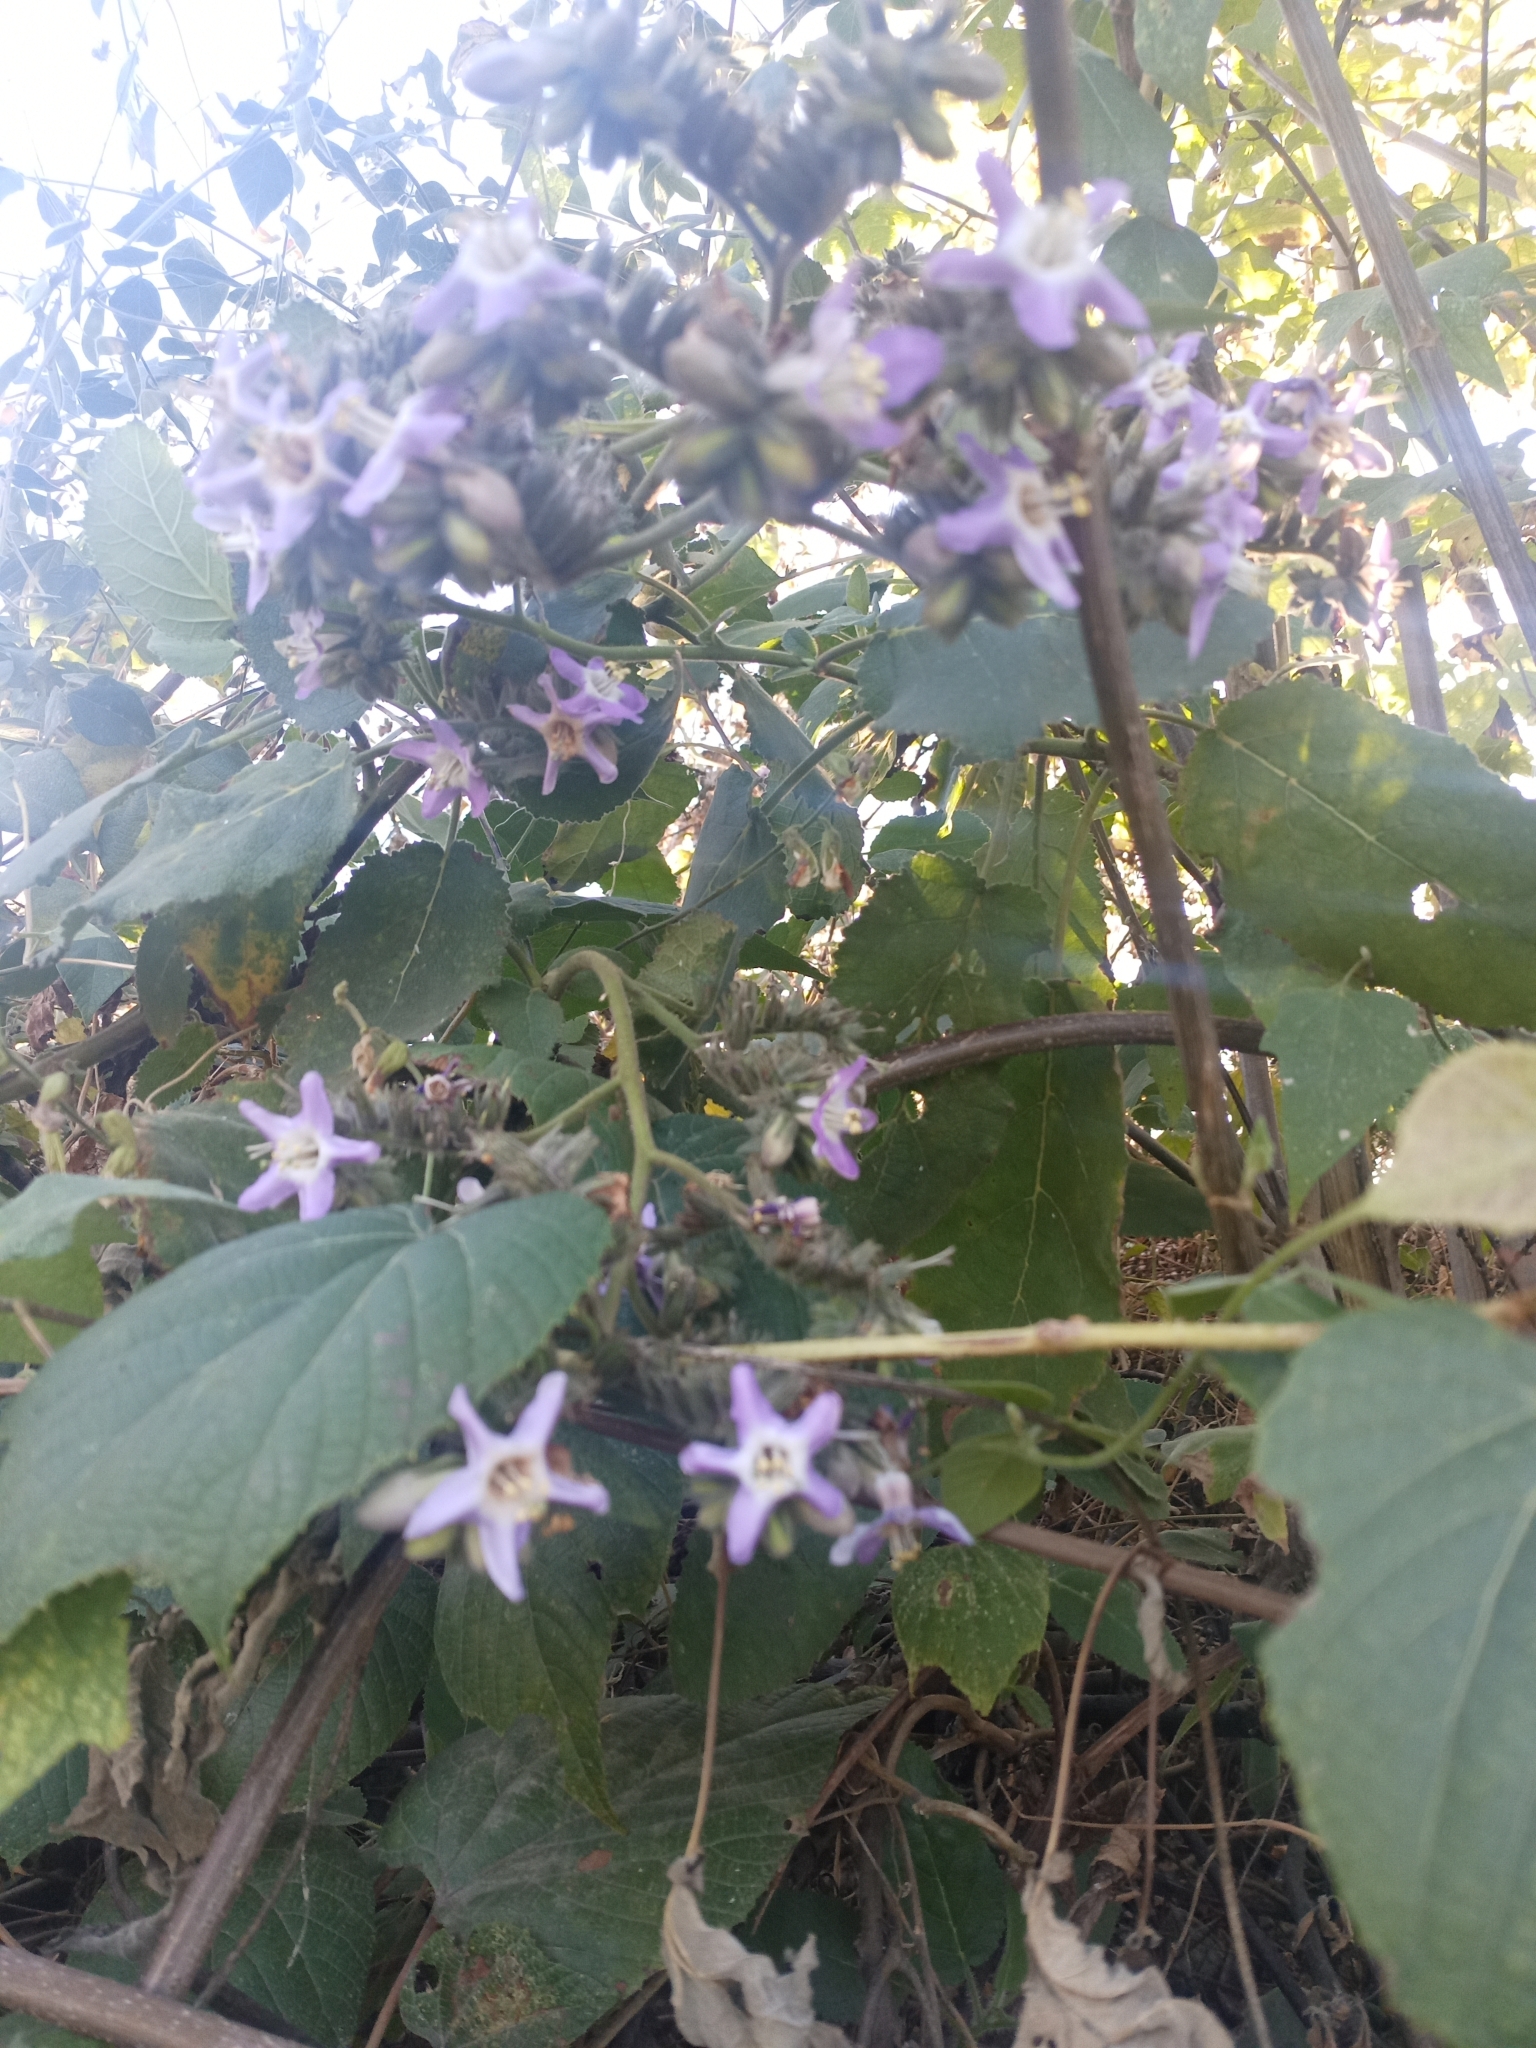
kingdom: Plantae
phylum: Tracheophyta
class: Magnoliopsida
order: Boraginales
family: Namaceae
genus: Wigandia
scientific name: Wigandia urens
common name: Caracus wigandia
